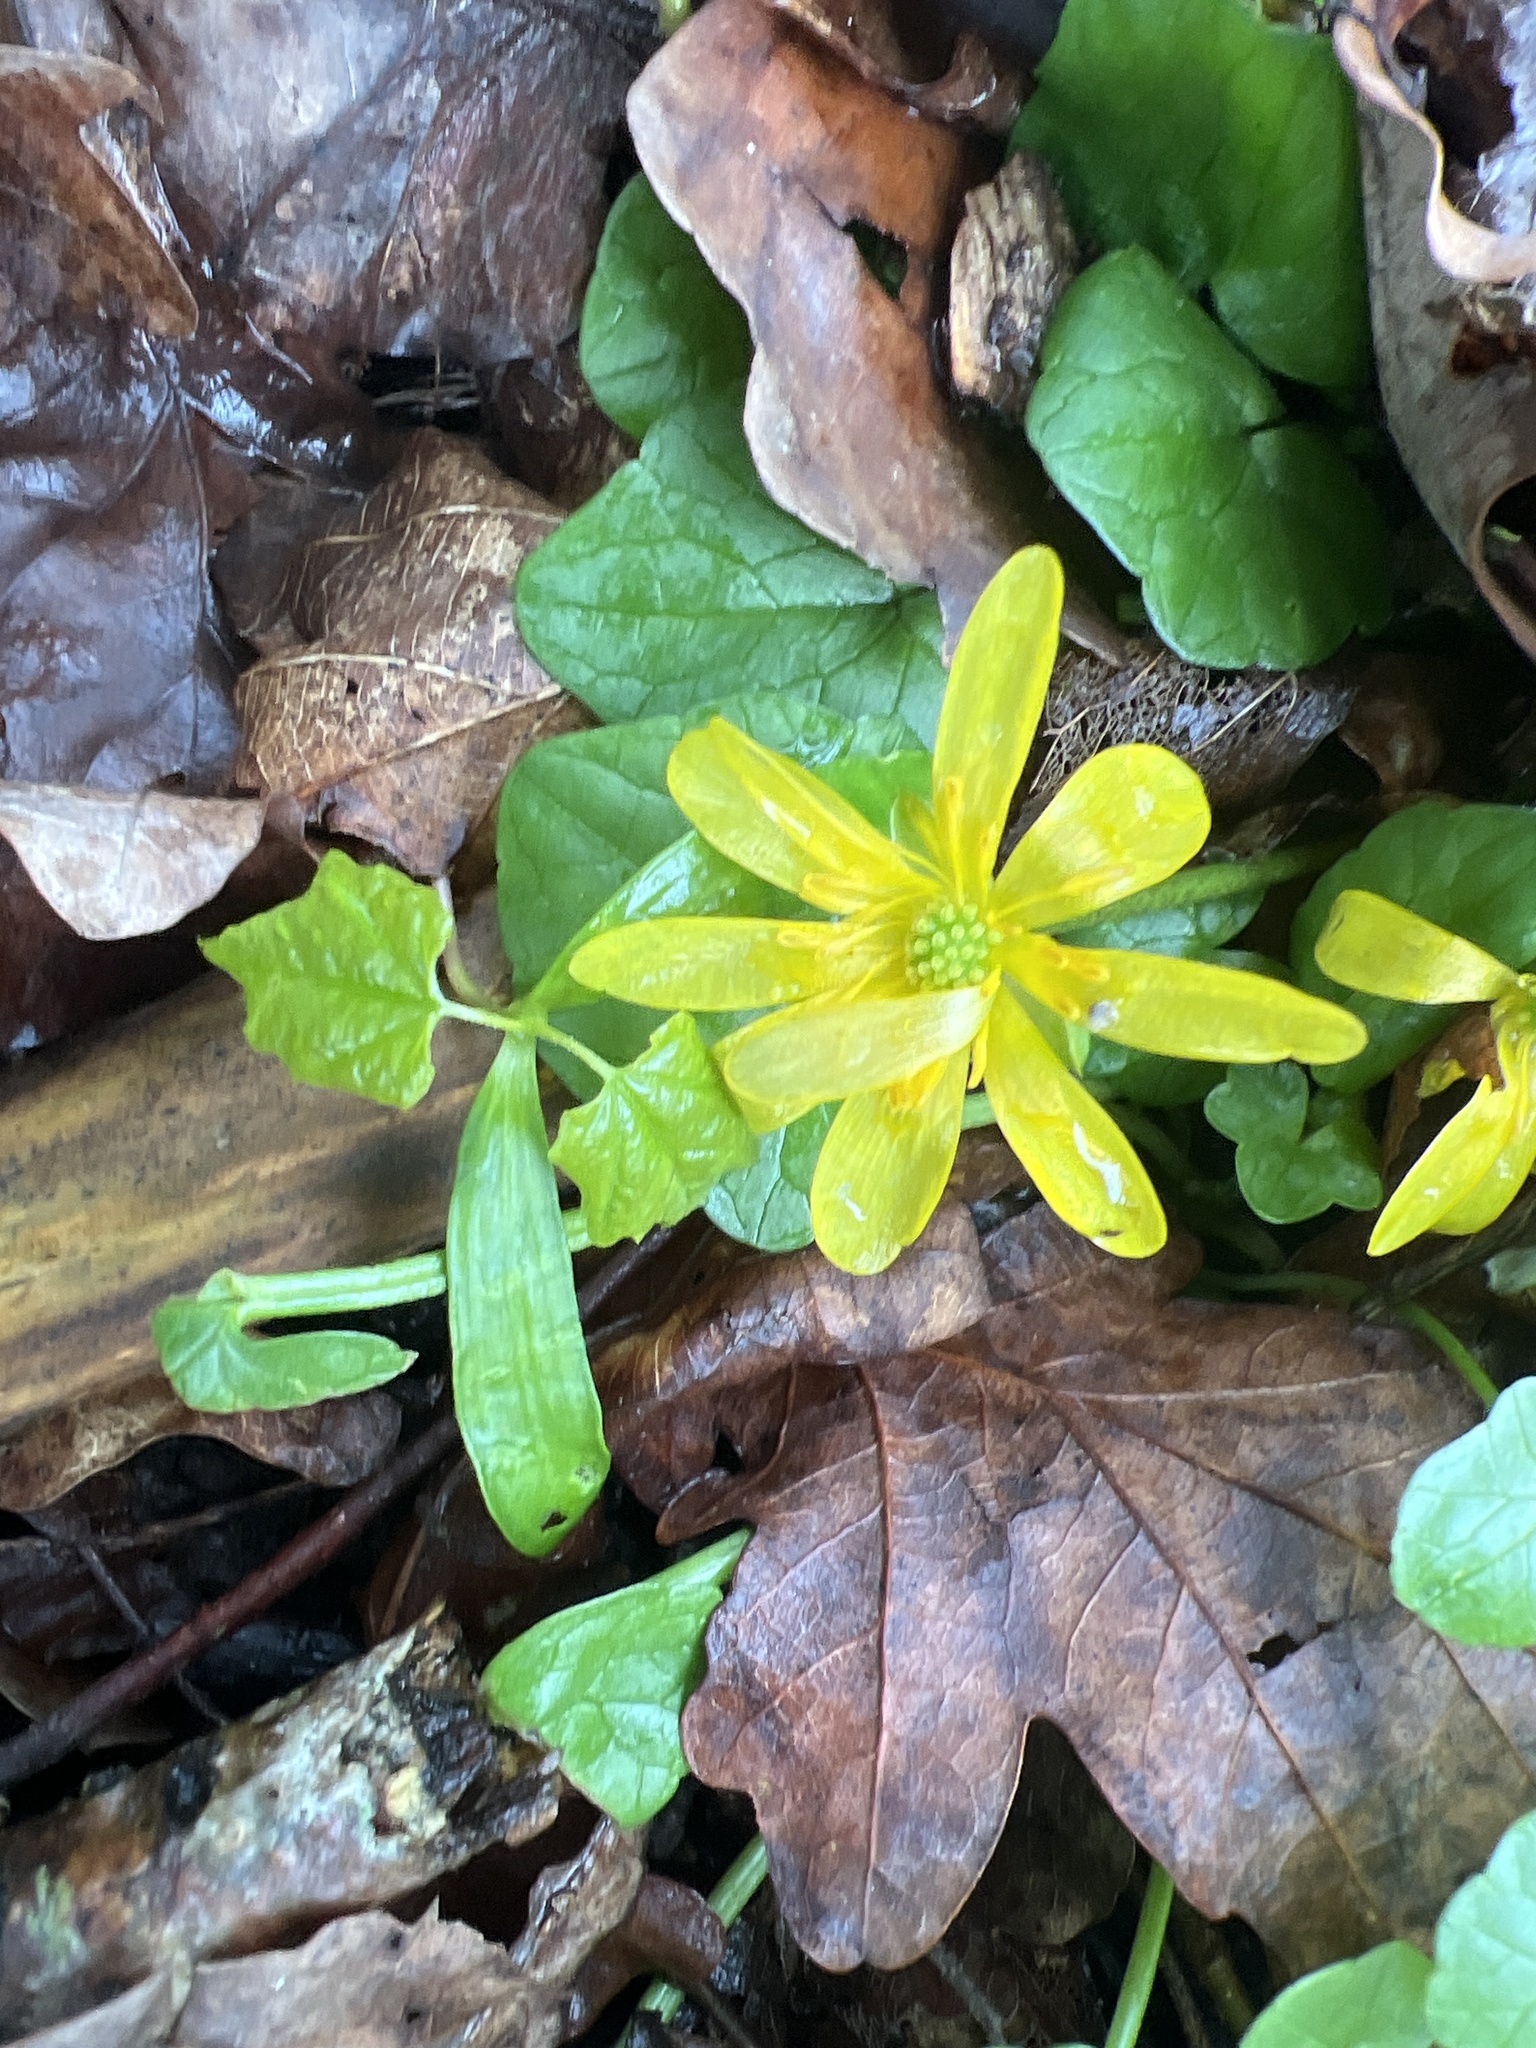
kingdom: Plantae
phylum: Tracheophyta
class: Magnoliopsida
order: Ranunculales
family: Ranunculaceae
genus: Ficaria
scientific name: Ficaria verna
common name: Lesser celandine
